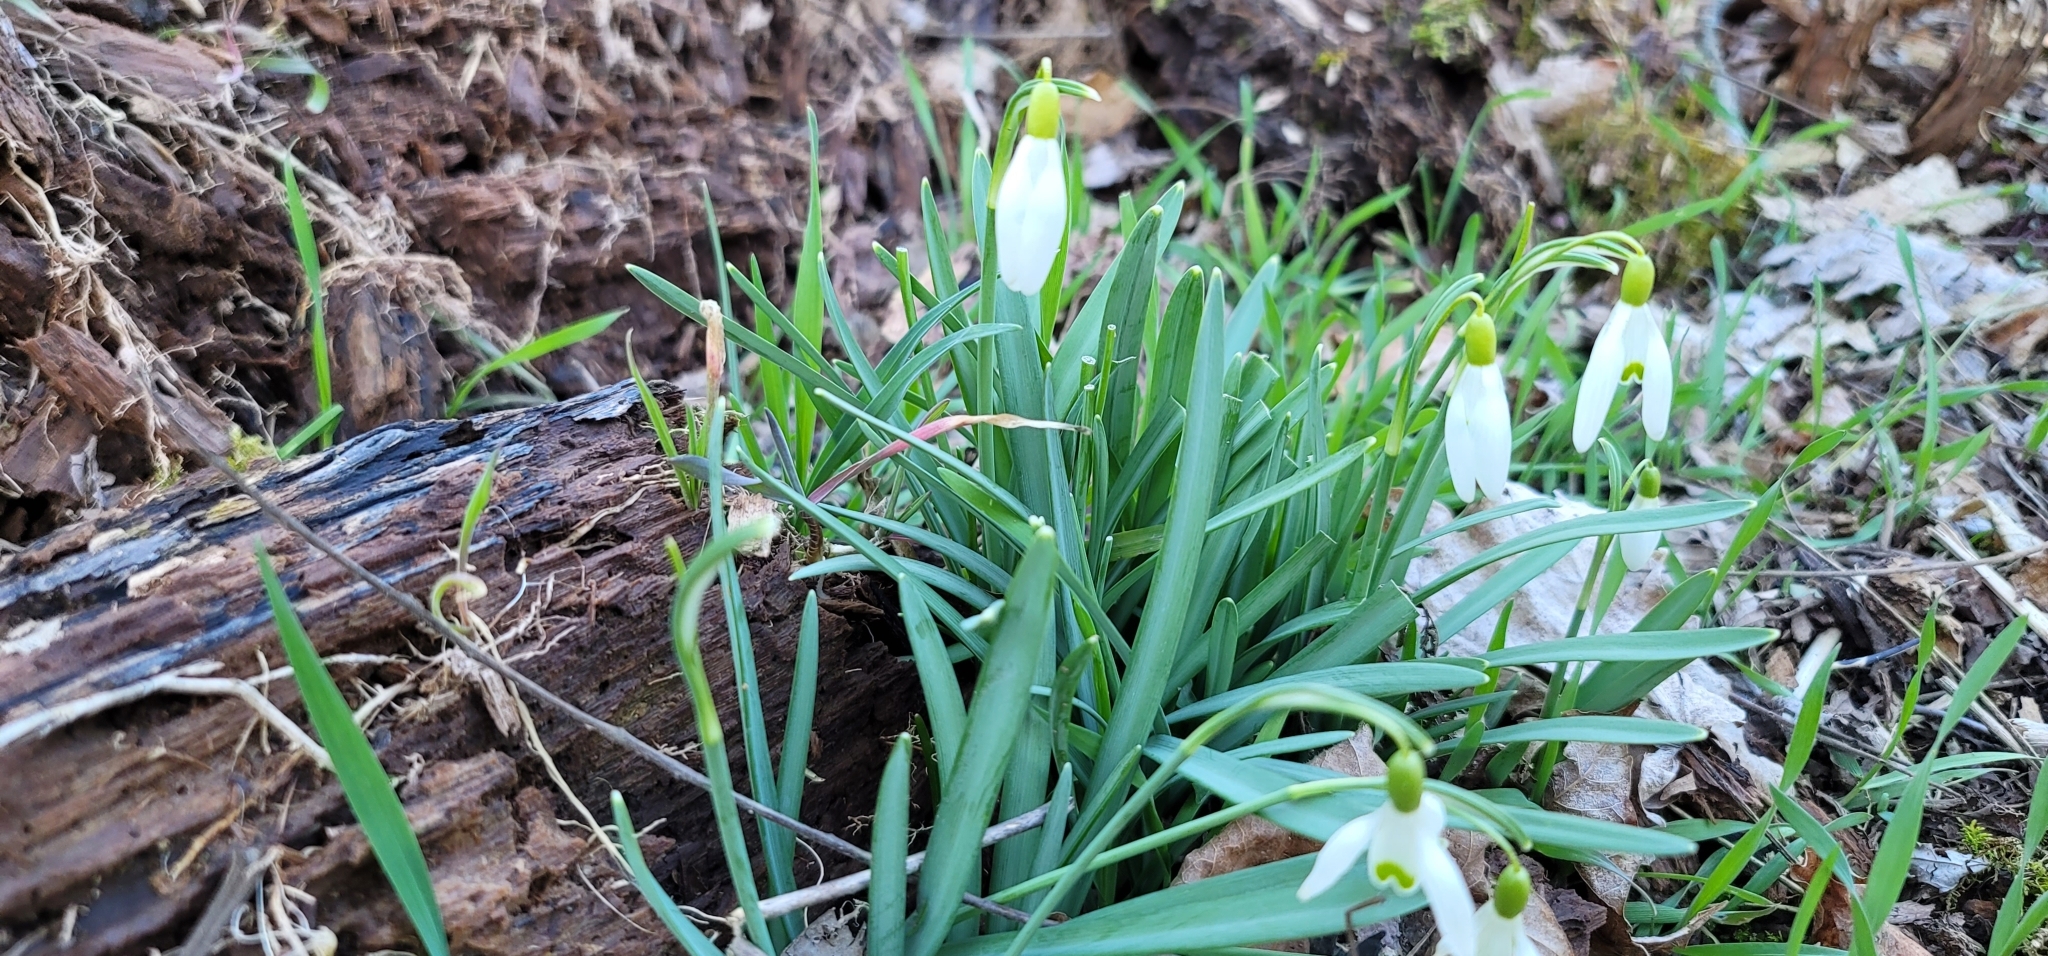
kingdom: Plantae
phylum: Tracheophyta
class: Liliopsida
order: Asparagales
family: Amaryllidaceae
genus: Galanthus
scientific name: Galanthus nivalis
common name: Snowdrop
